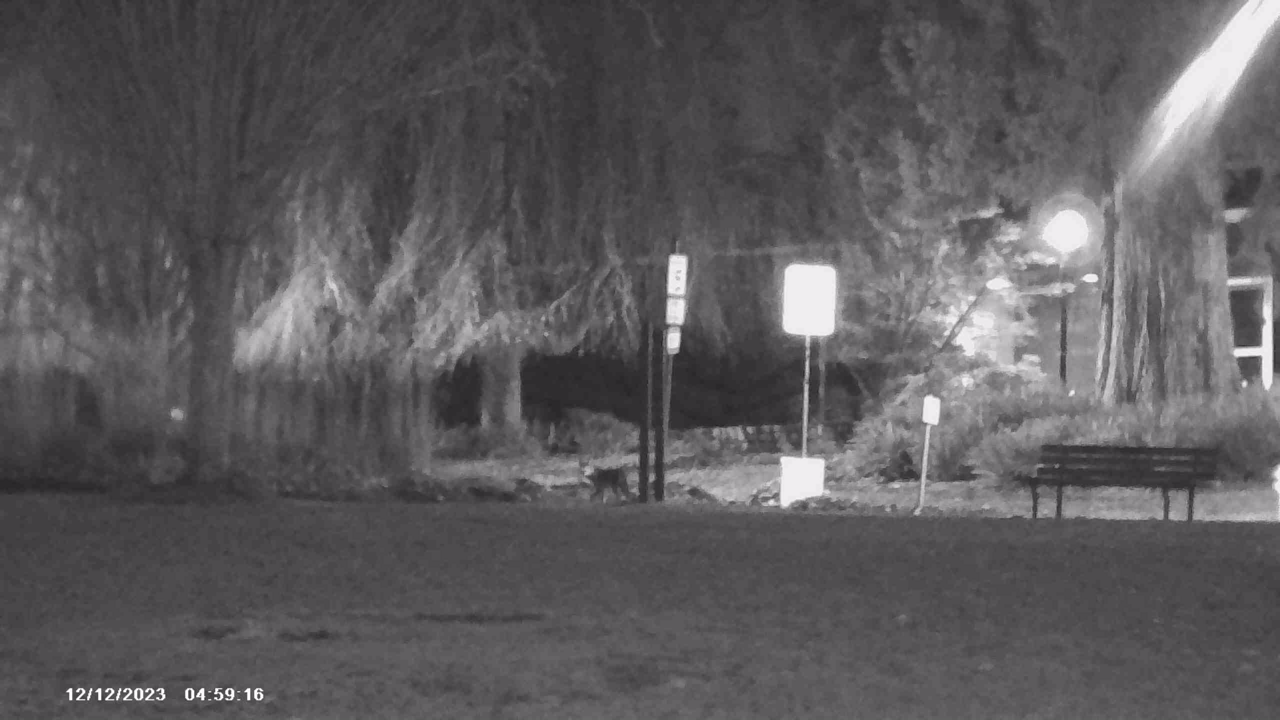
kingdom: Animalia
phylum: Chordata
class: Mammalia
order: Carnivora
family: Canidae
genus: Canis
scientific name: Canis latrans
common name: Coyote
